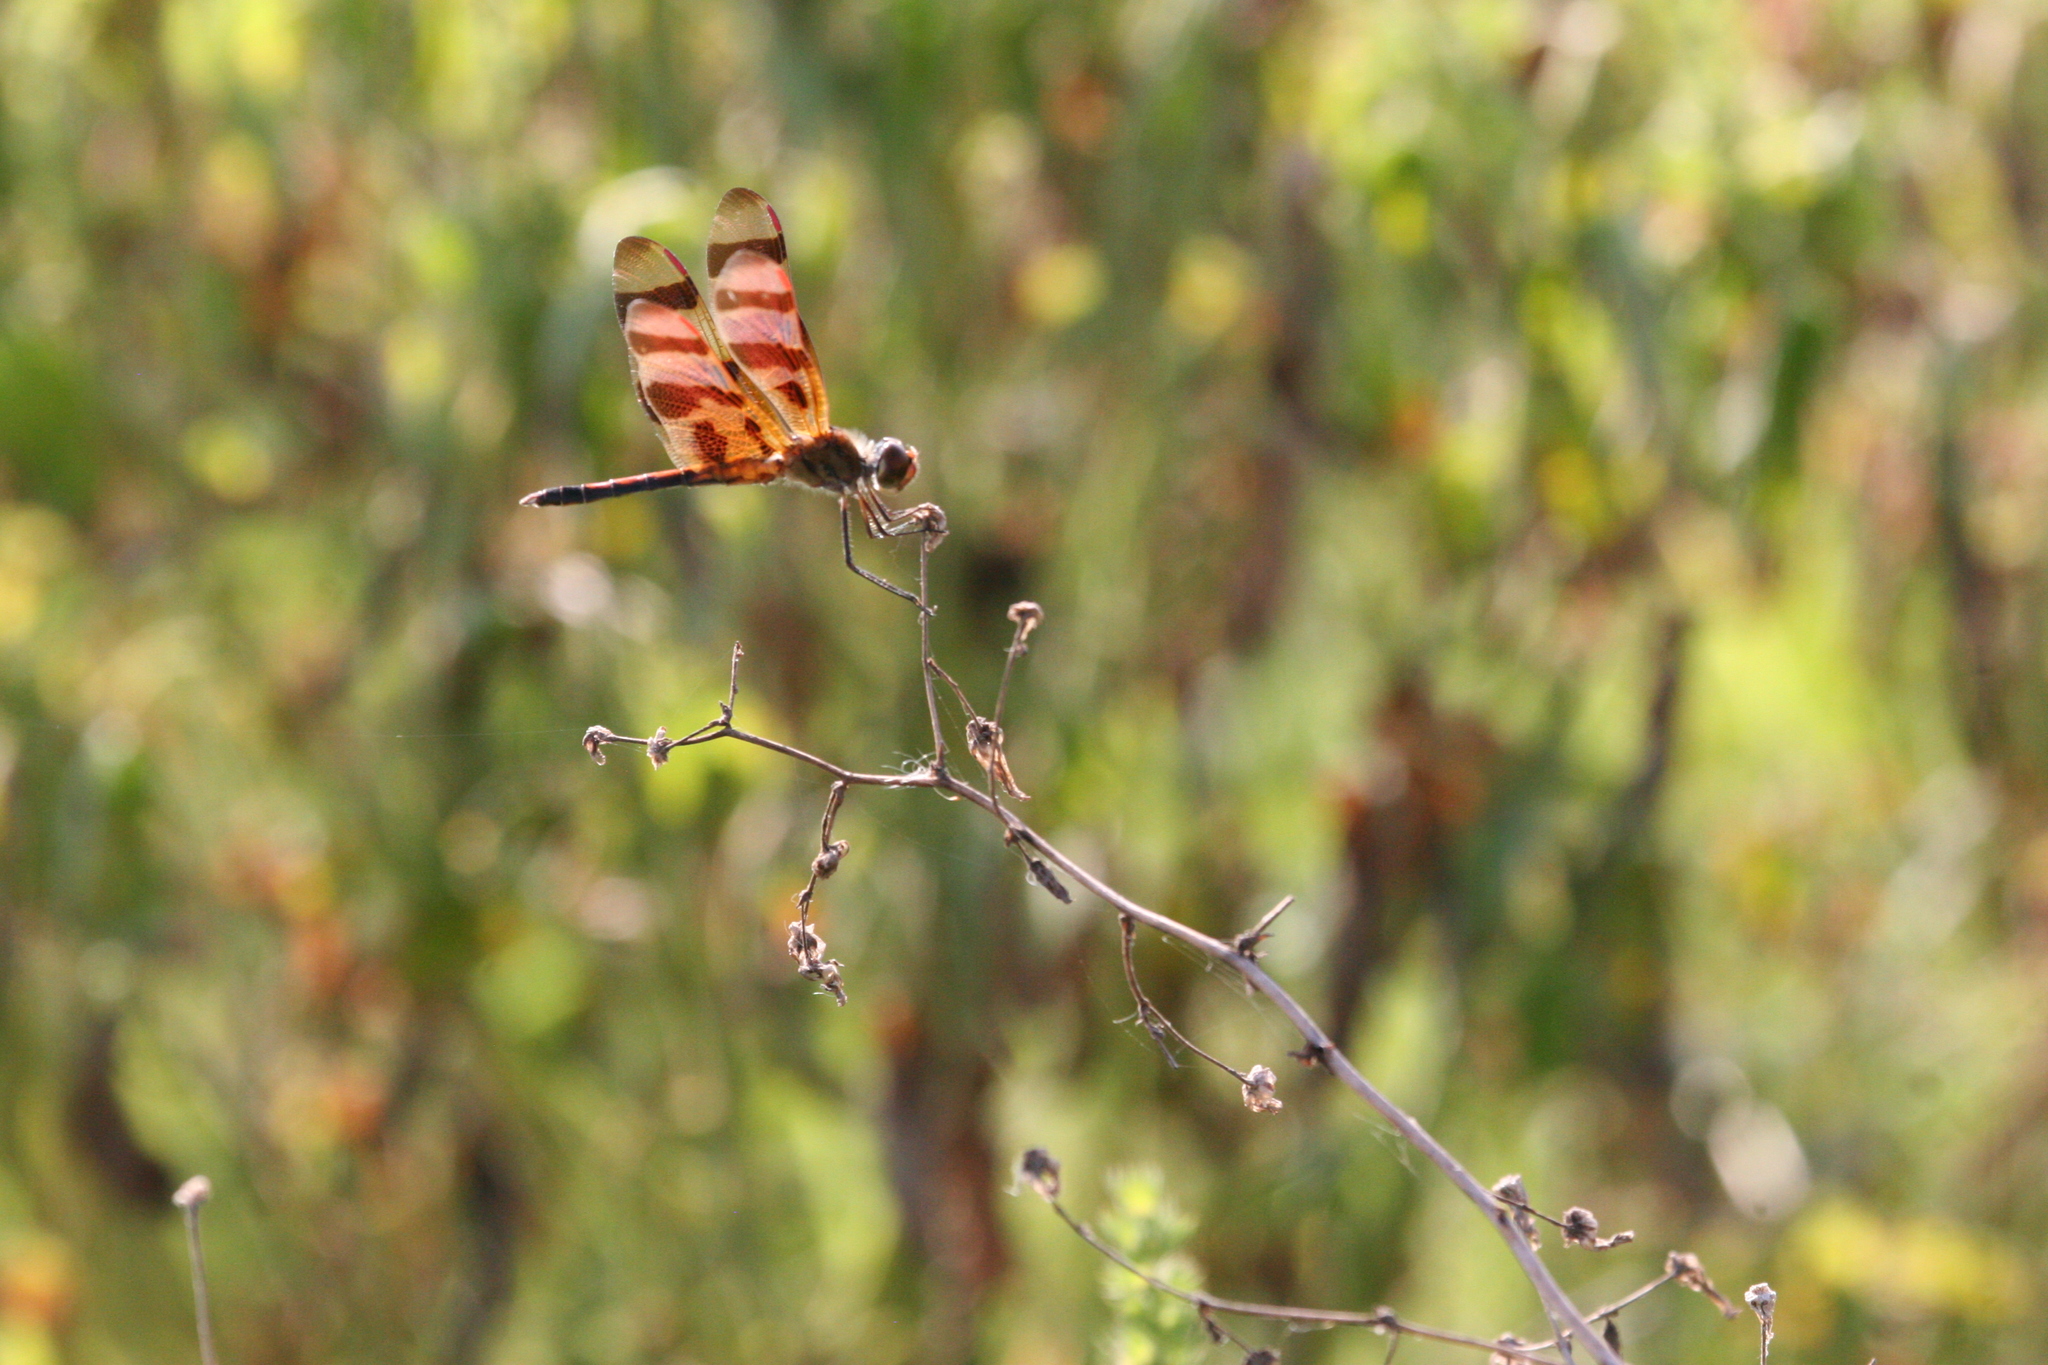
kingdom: Animalia
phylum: Arthropoda
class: Insecta
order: Odonata
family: Libellulidae
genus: Celithemis
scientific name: Celithemis eponina
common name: Halloween pennant
